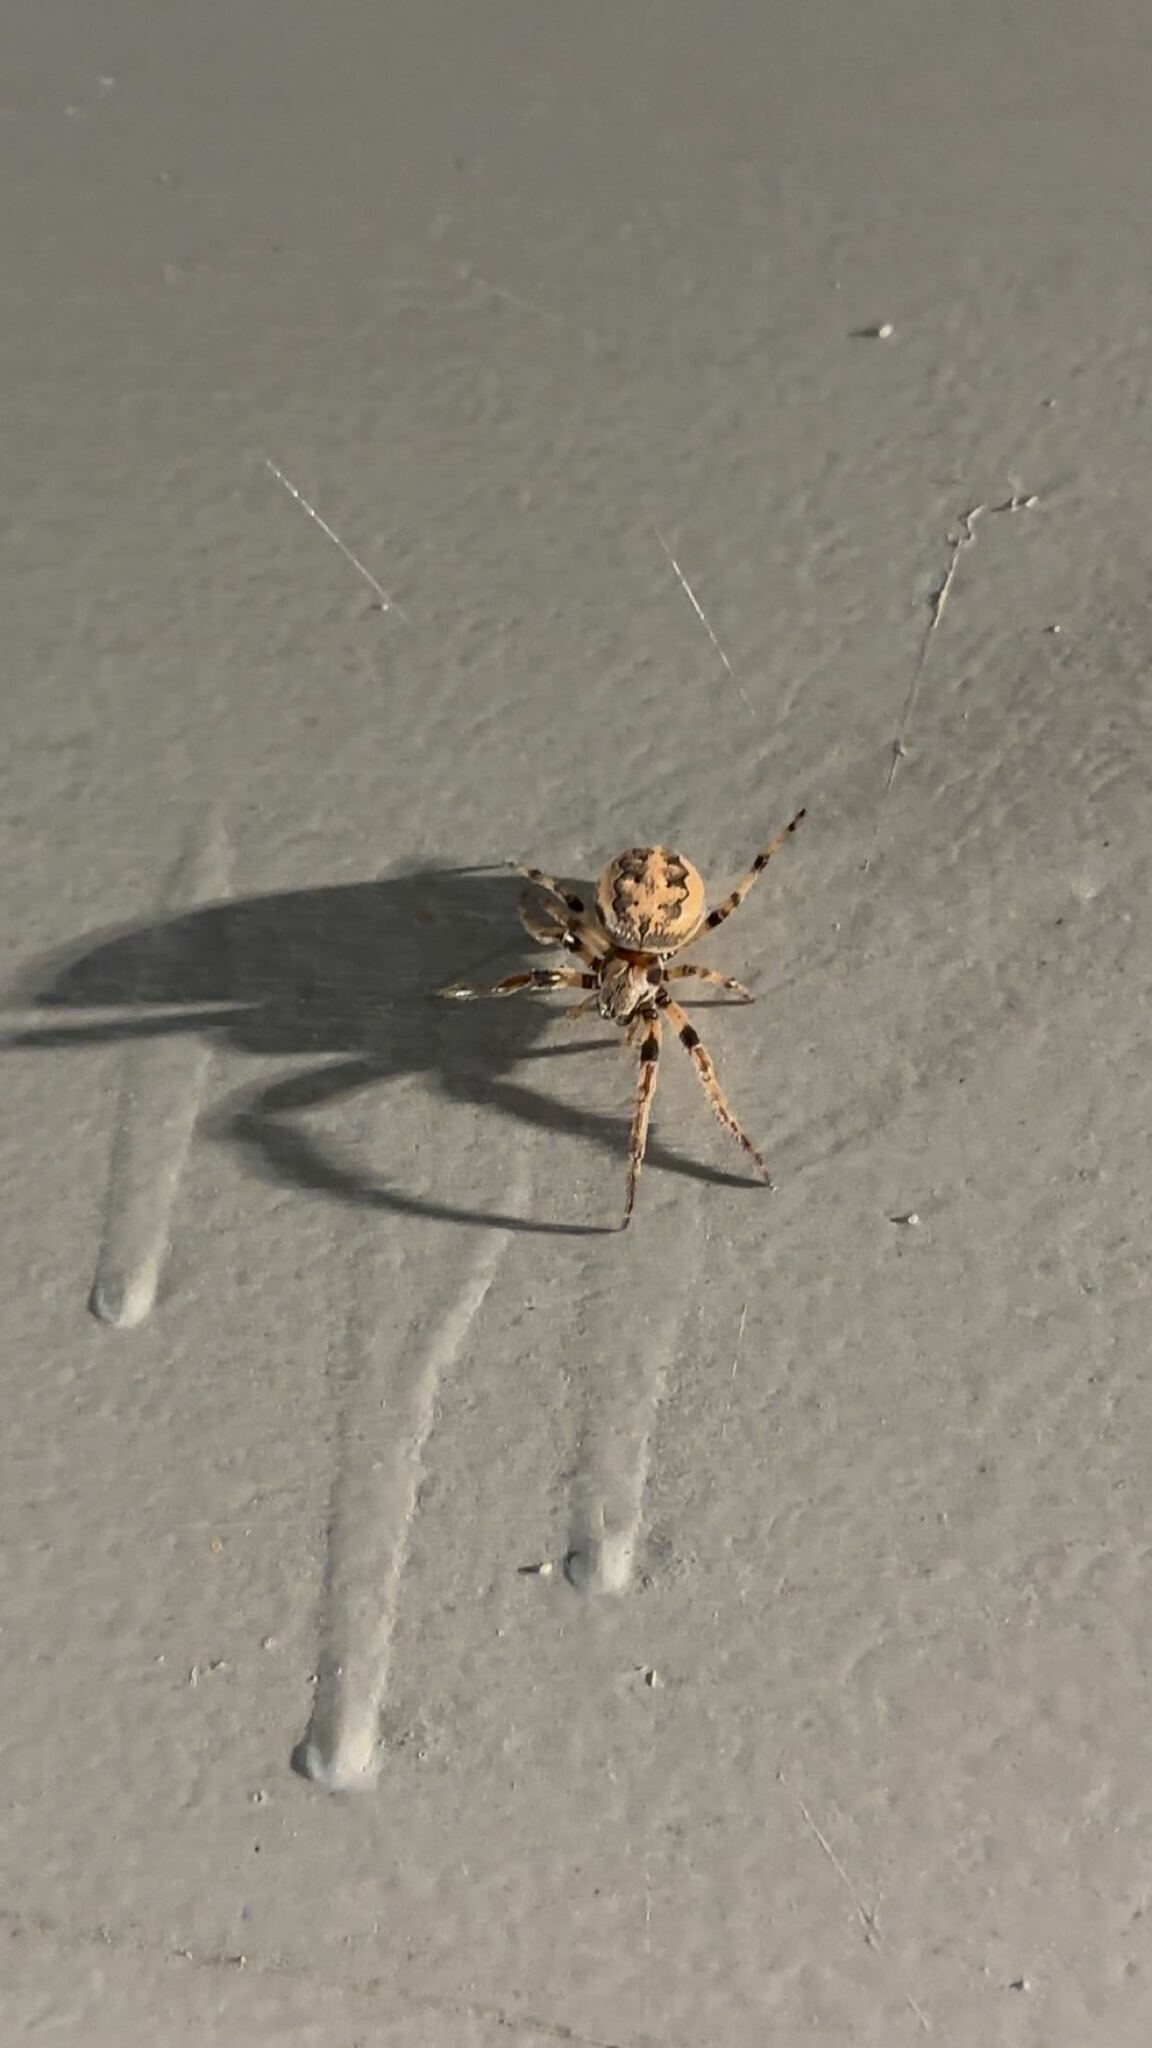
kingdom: Animalia
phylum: Arthropoda
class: Arachnida
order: Araneae
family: Araneidae
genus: Larinioides
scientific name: Larinioides cornutus
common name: Furrow orbweaver
